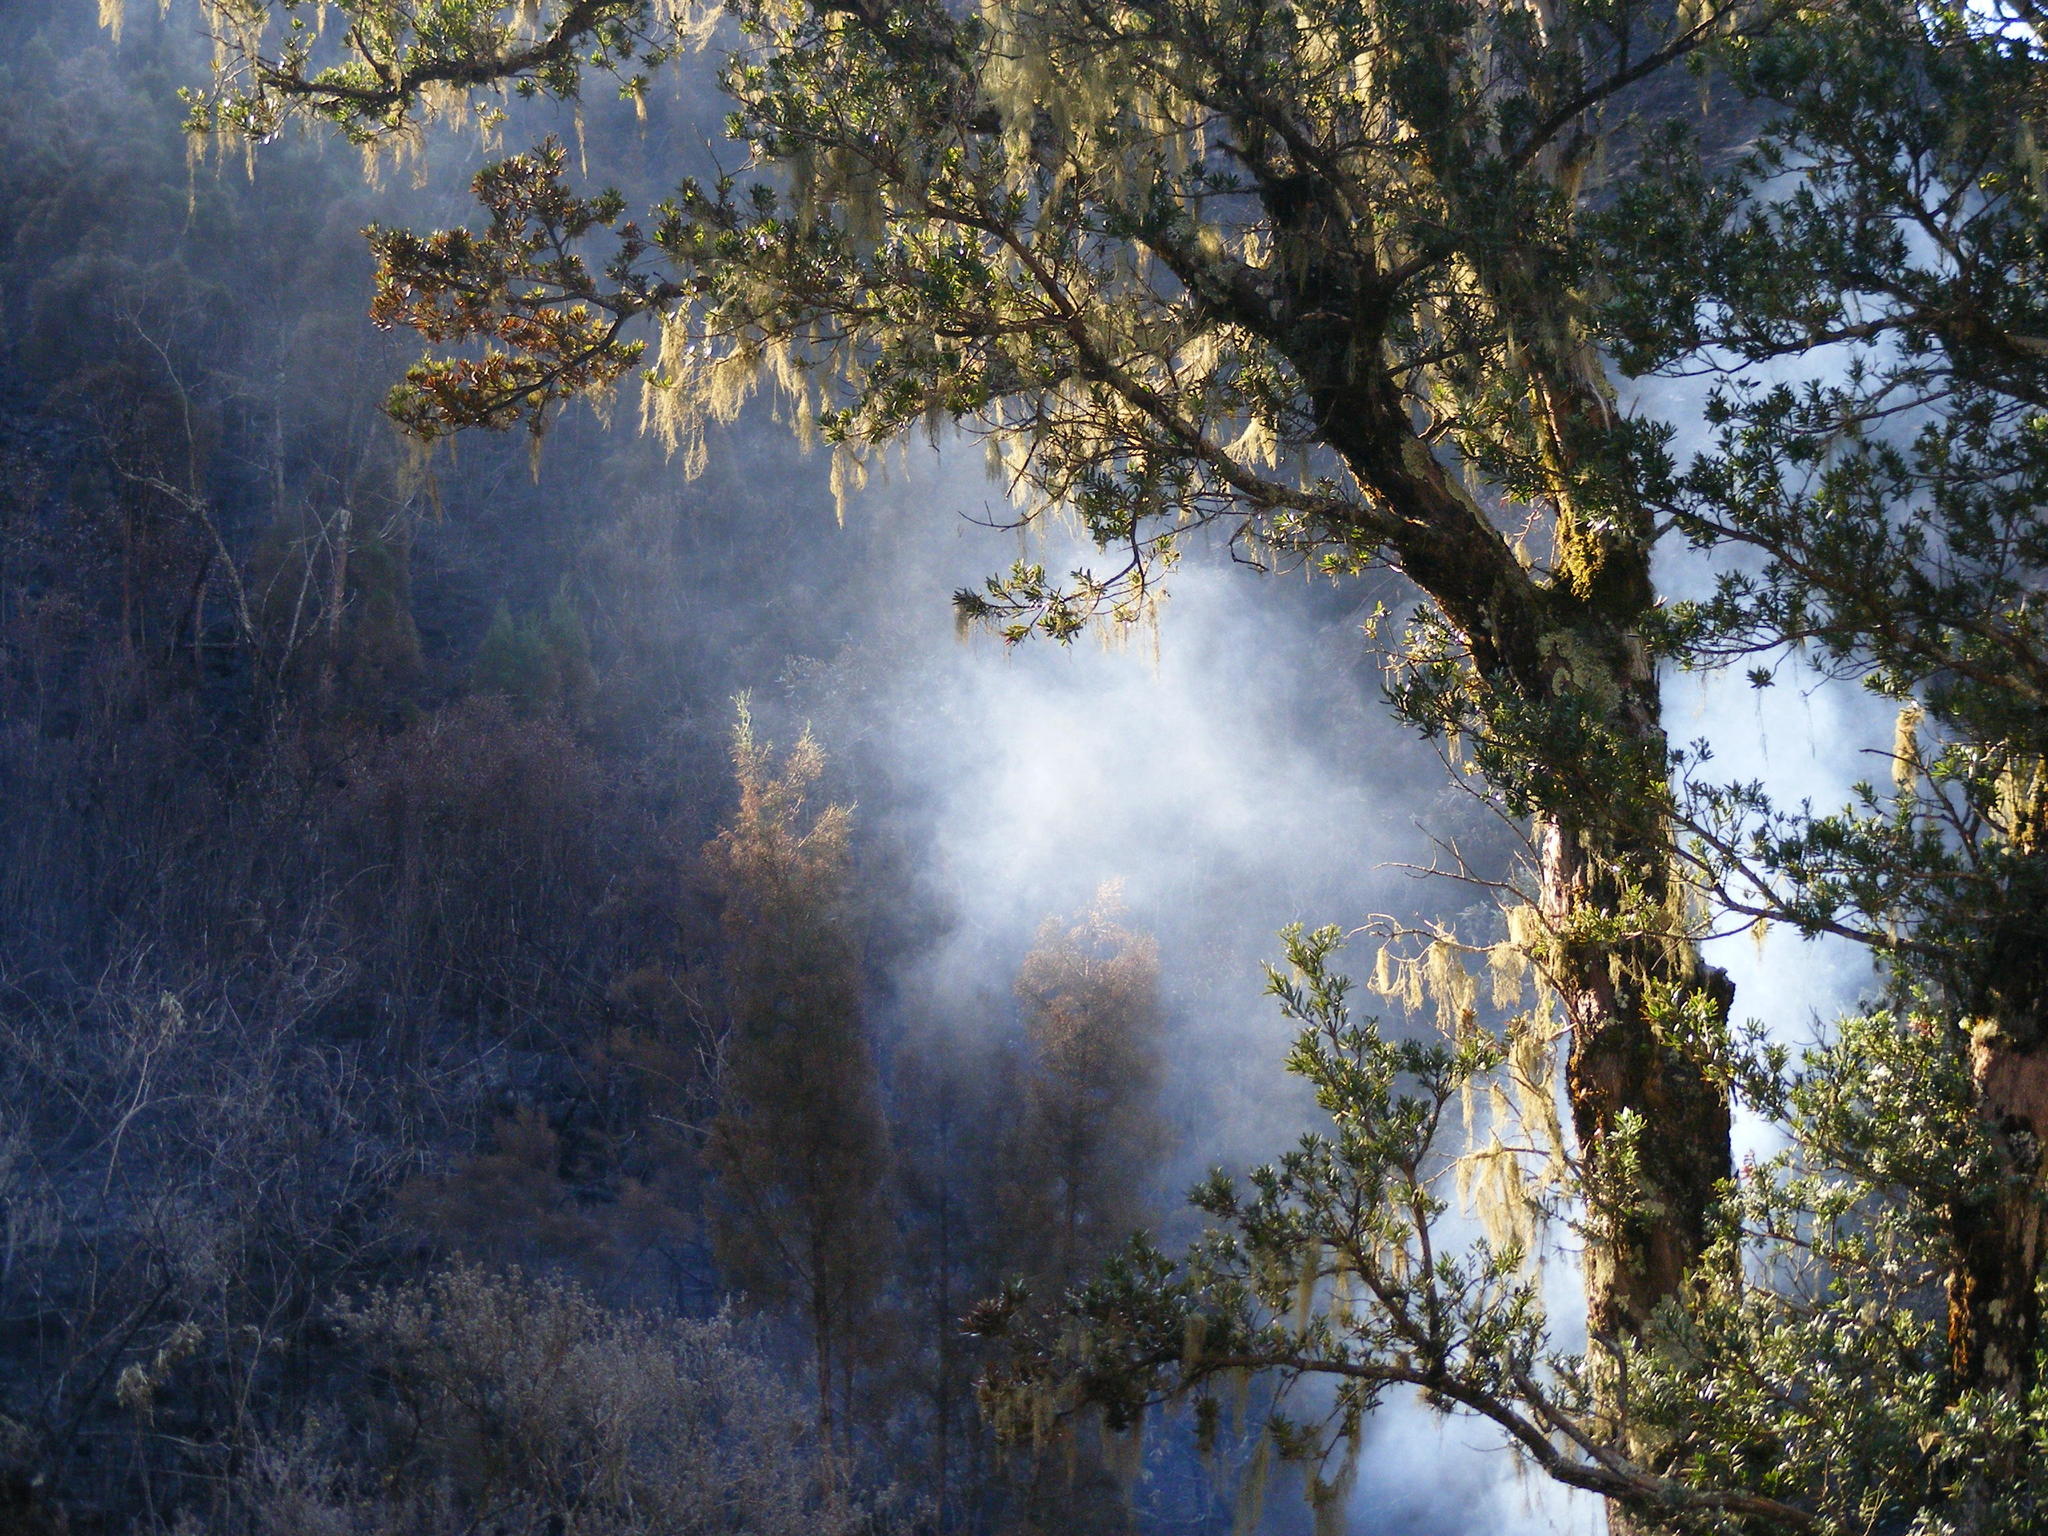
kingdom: Plantae
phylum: Tracheophyta
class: Pinopsida
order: Pinales
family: Podocarpaceae
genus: Podocarpus
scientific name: Podocarpus latifolius
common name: True yellowwood
